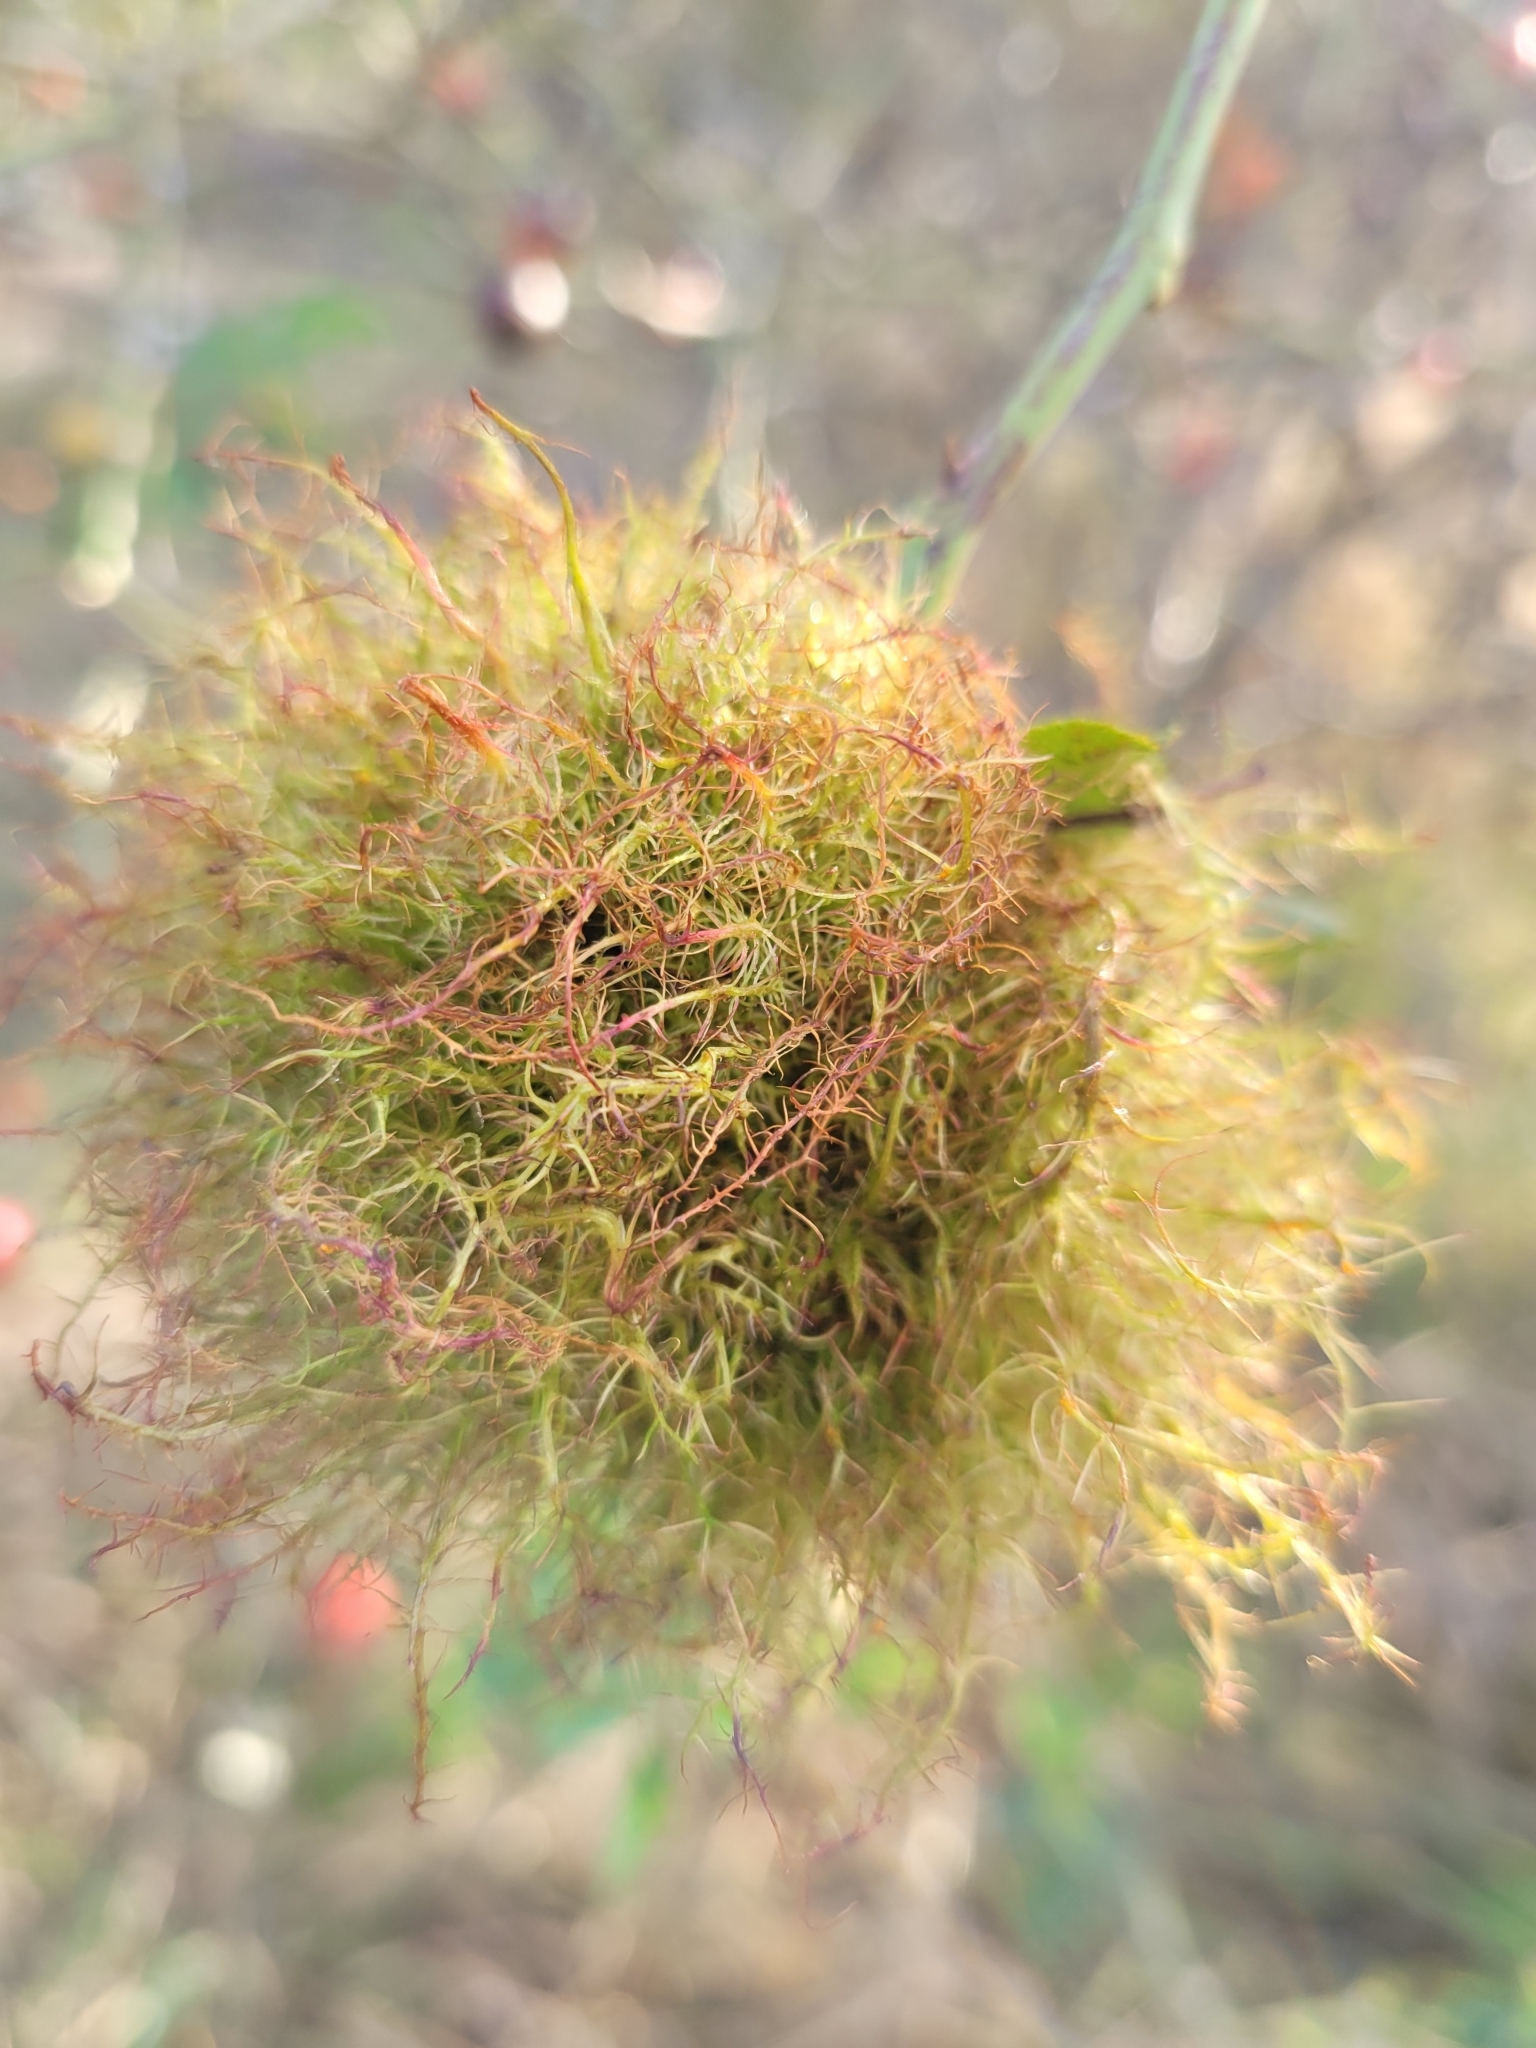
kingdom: Animalia
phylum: Arthropoda
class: Insecta
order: Hymenoptera
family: Cynipidae
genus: Diplolepis
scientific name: Diplolepis rosae
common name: Bedeguar gall
